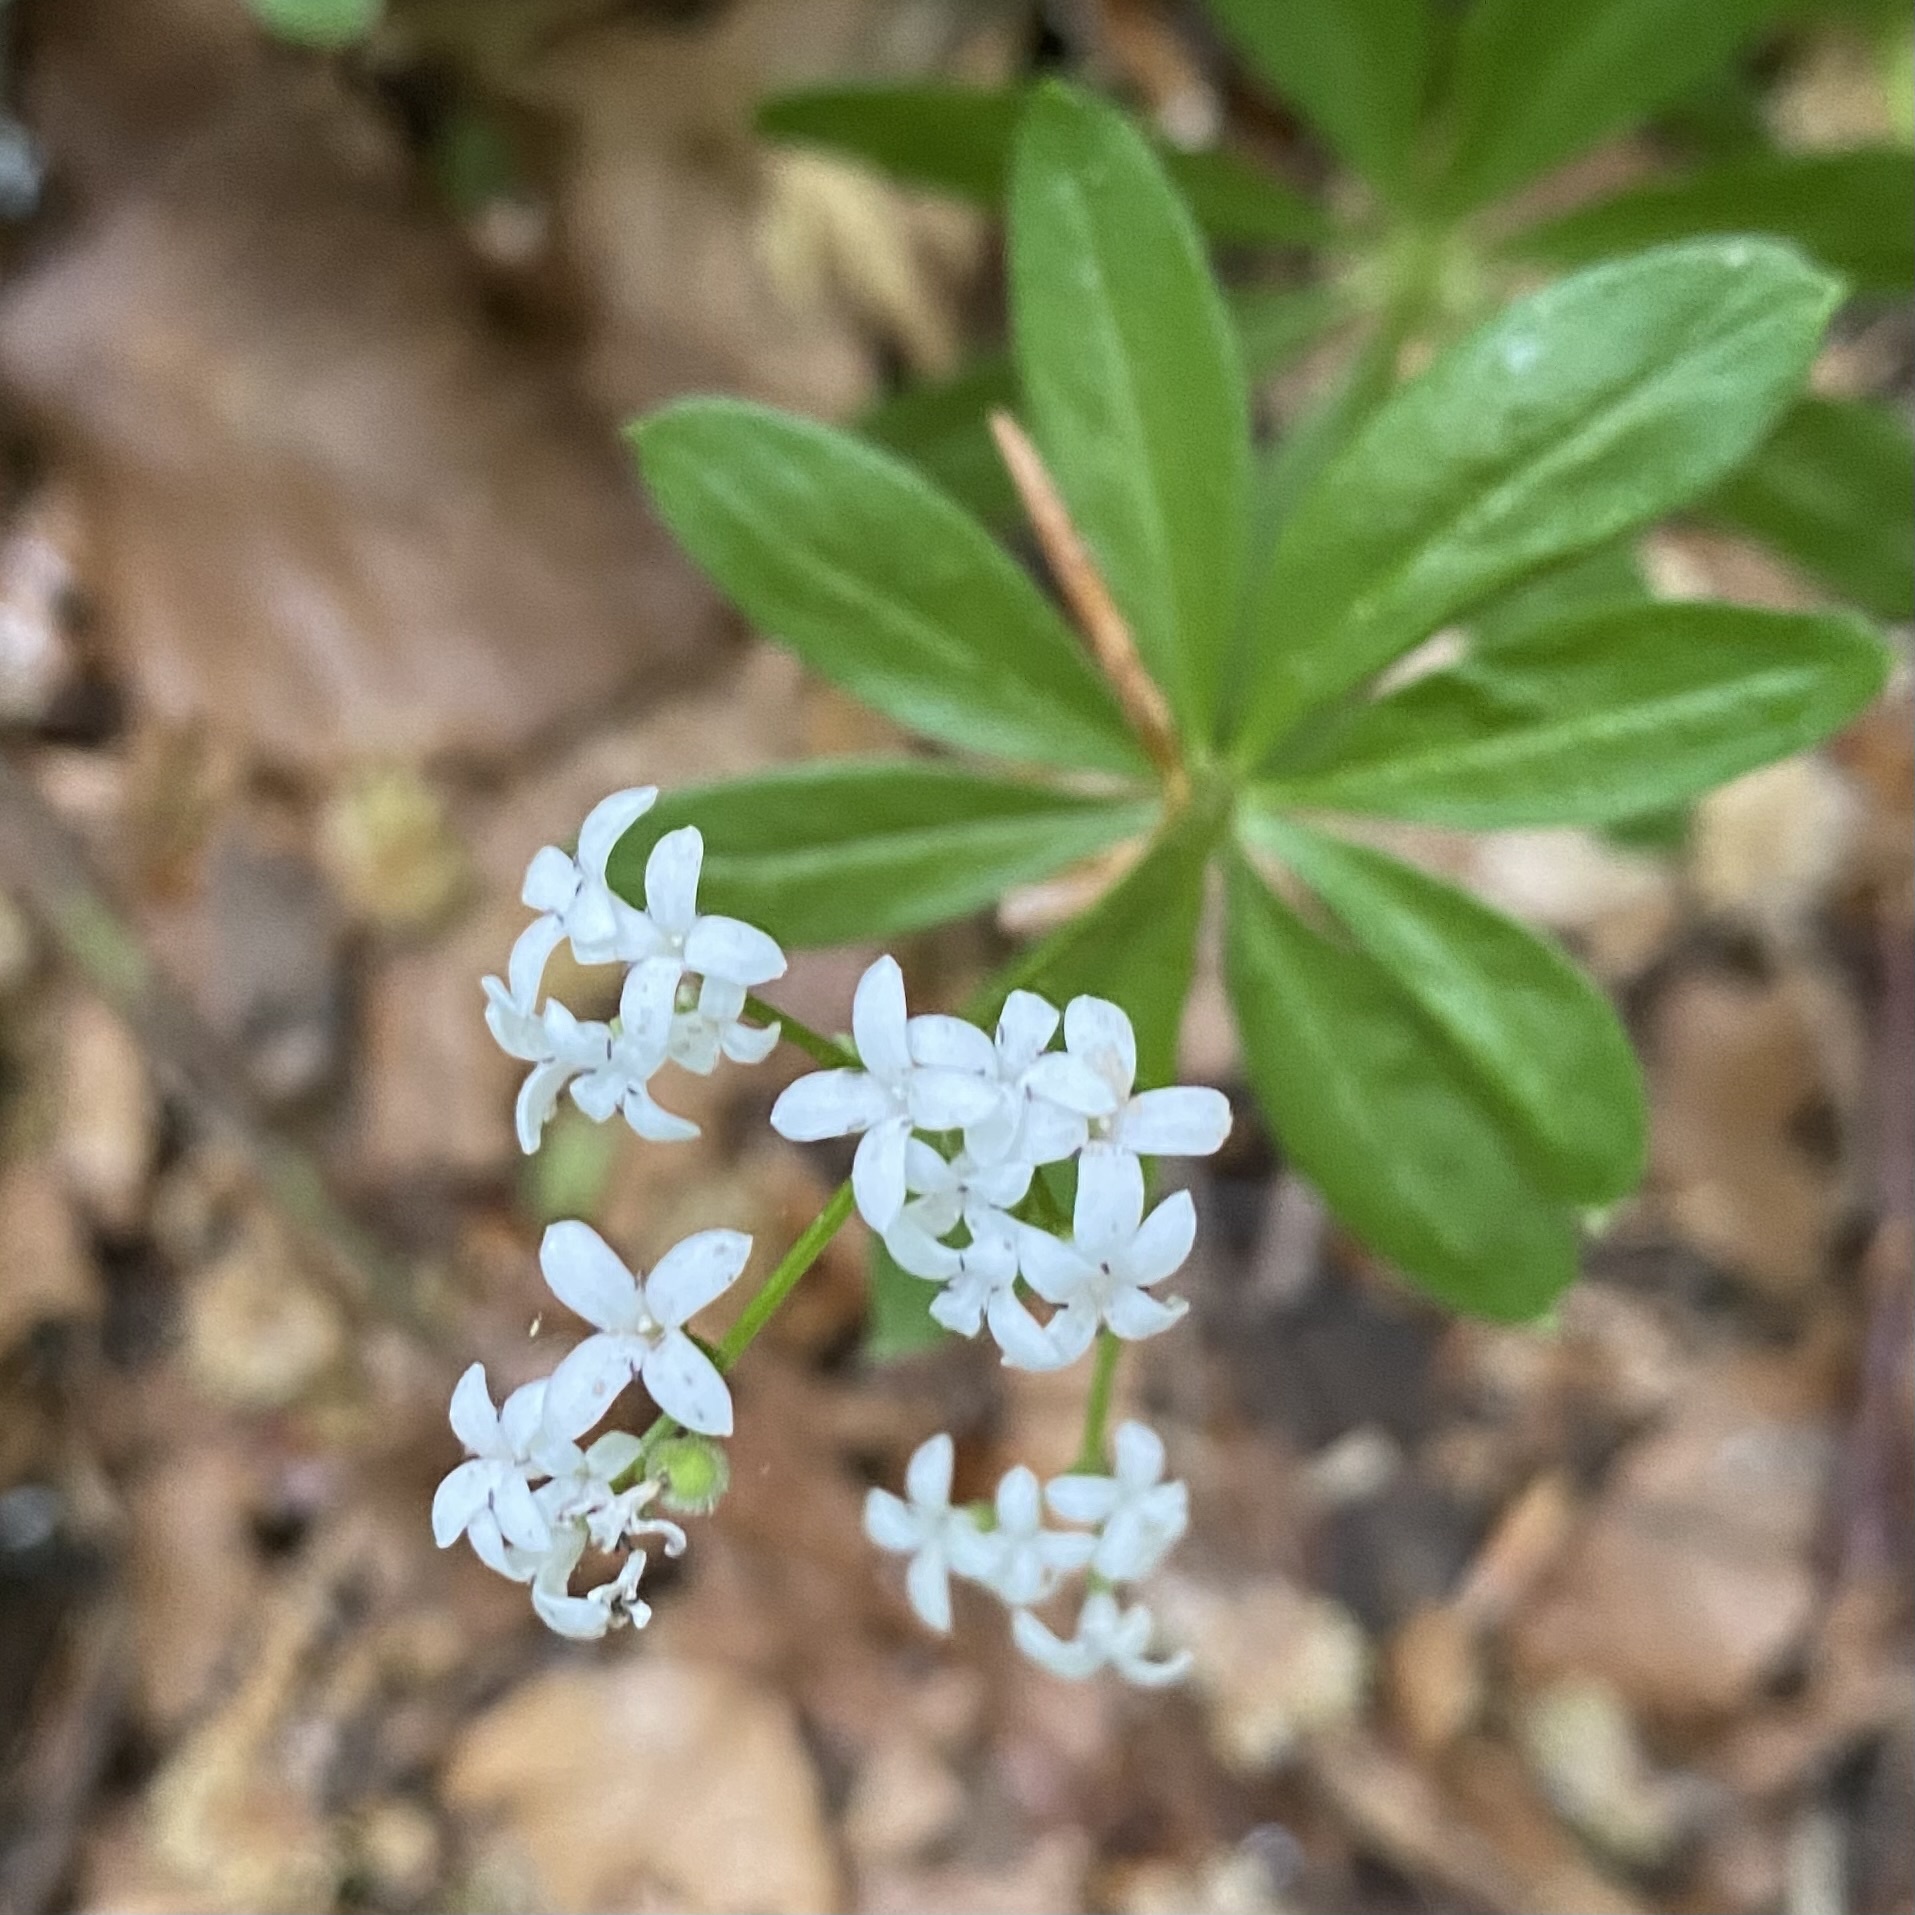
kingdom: Plantae
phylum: Tracheophyta
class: Magnoliopsida
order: Gentianales
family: Rubiaceae
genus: Galium
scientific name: Galium odoratum
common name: Sweet woodruff
